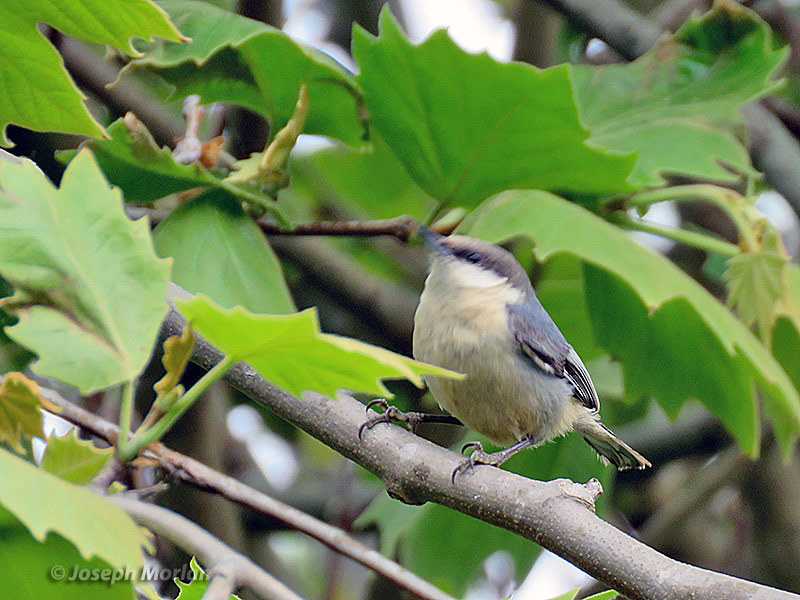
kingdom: Animalia
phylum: Chordata
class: Aves
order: Passeriformes
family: Sittidae
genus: Sitta
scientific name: Sitta pygmaea
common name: Pygmy nuthatch
